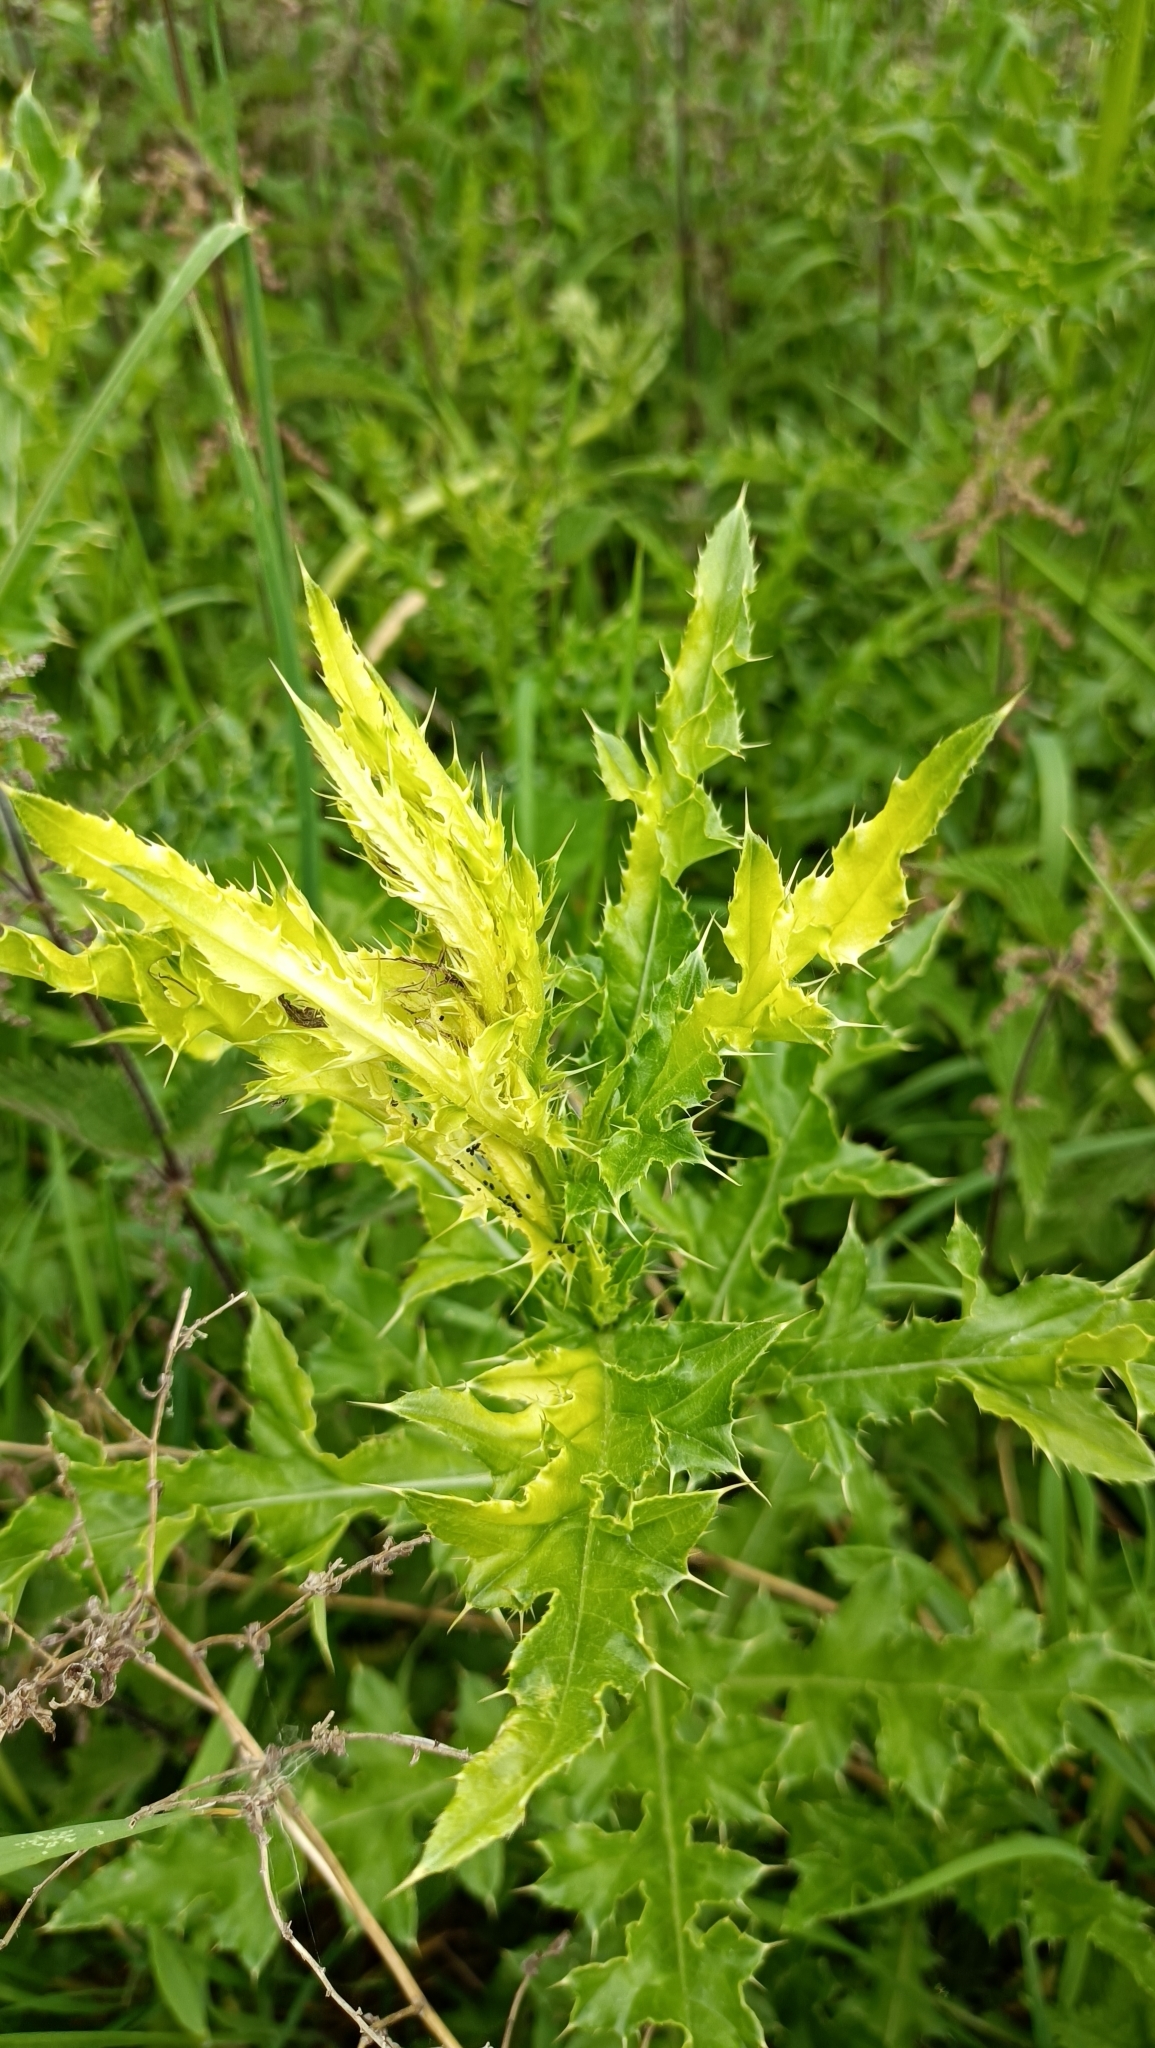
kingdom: Plantae
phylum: Tracheophyta
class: Magnoliopsida
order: Asterales
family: Asteraceae
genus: Cirsium
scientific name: Cirsium arvense
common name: Creeping thistle
